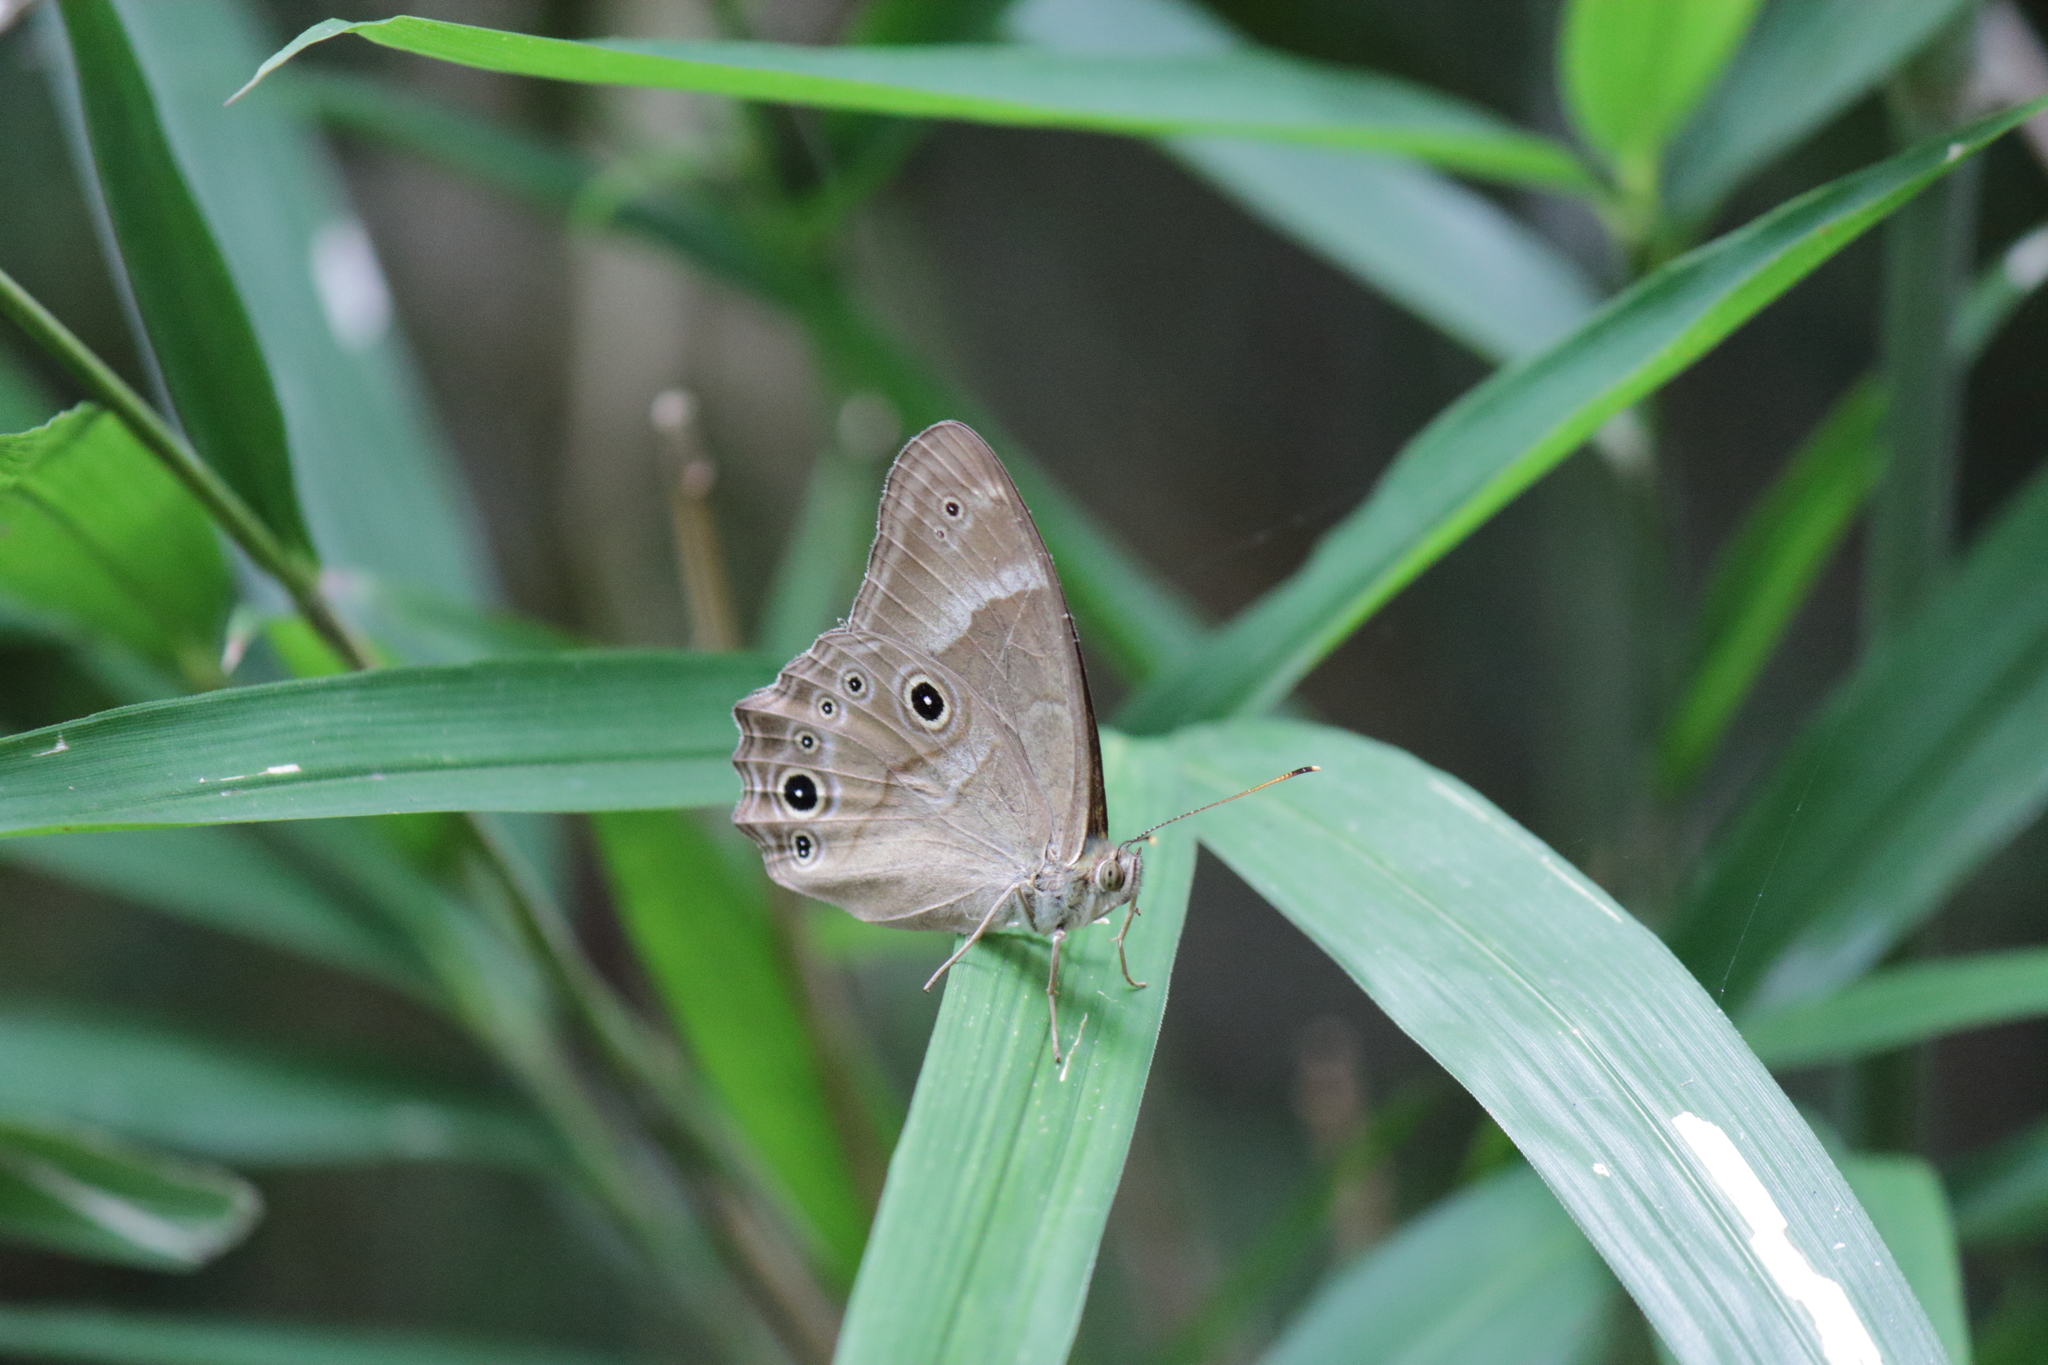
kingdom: Animalia
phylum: Arthropoda
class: Insecta
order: Lepidoptera
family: Nymphalidae
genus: Lethe
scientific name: Lethe sicelis
